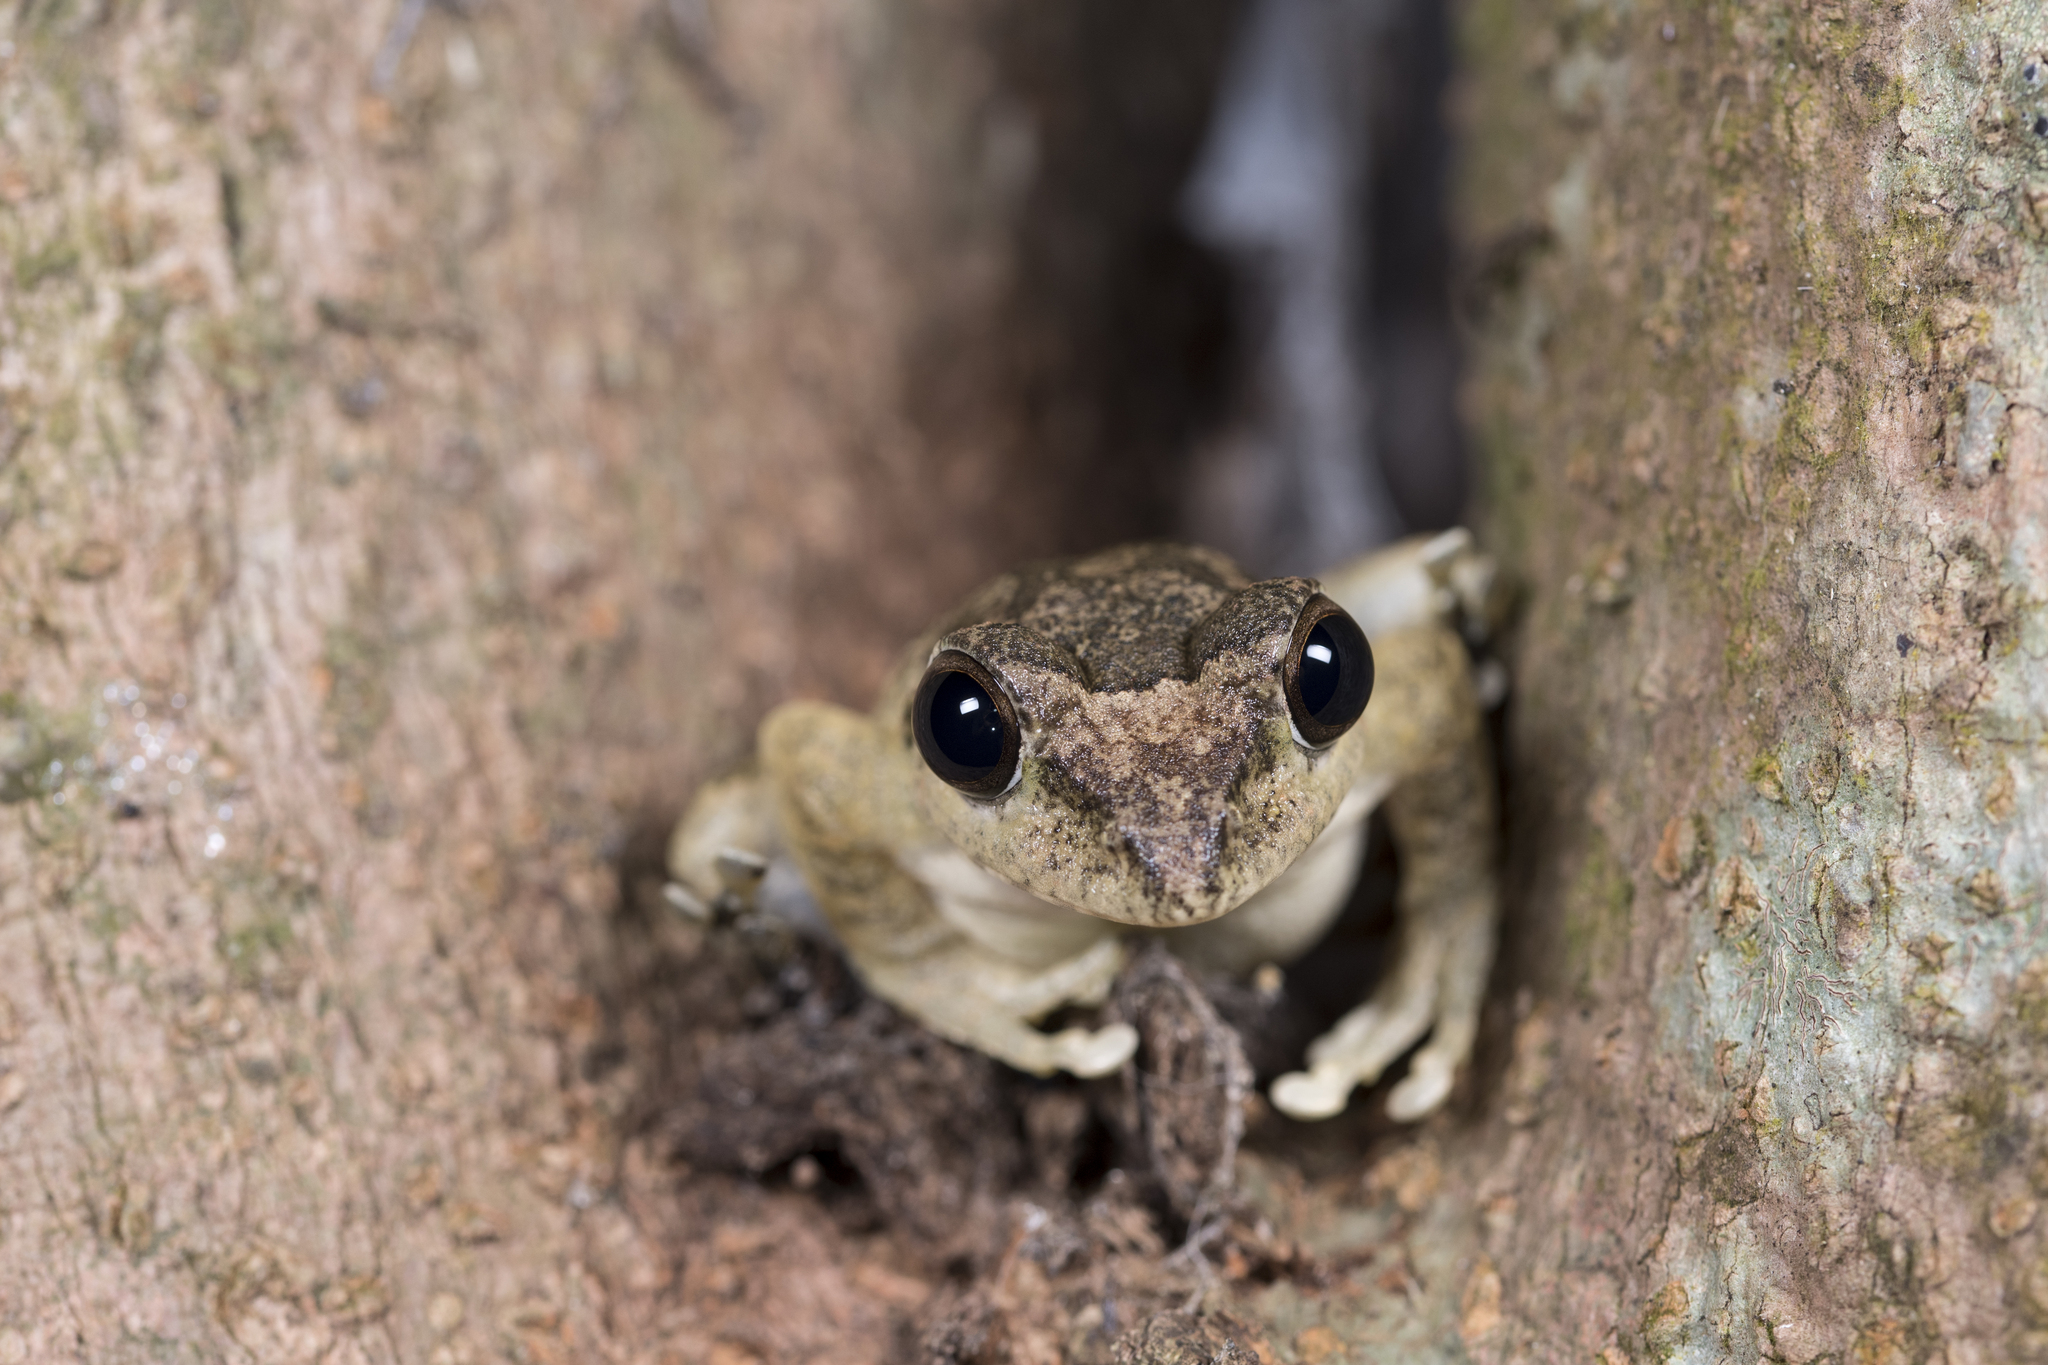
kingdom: Animalia
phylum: Chordata
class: Amphibia
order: Anura
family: Rhacophoridae
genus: Buergeria
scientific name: Buergeria robusta
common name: Brown treefrog
